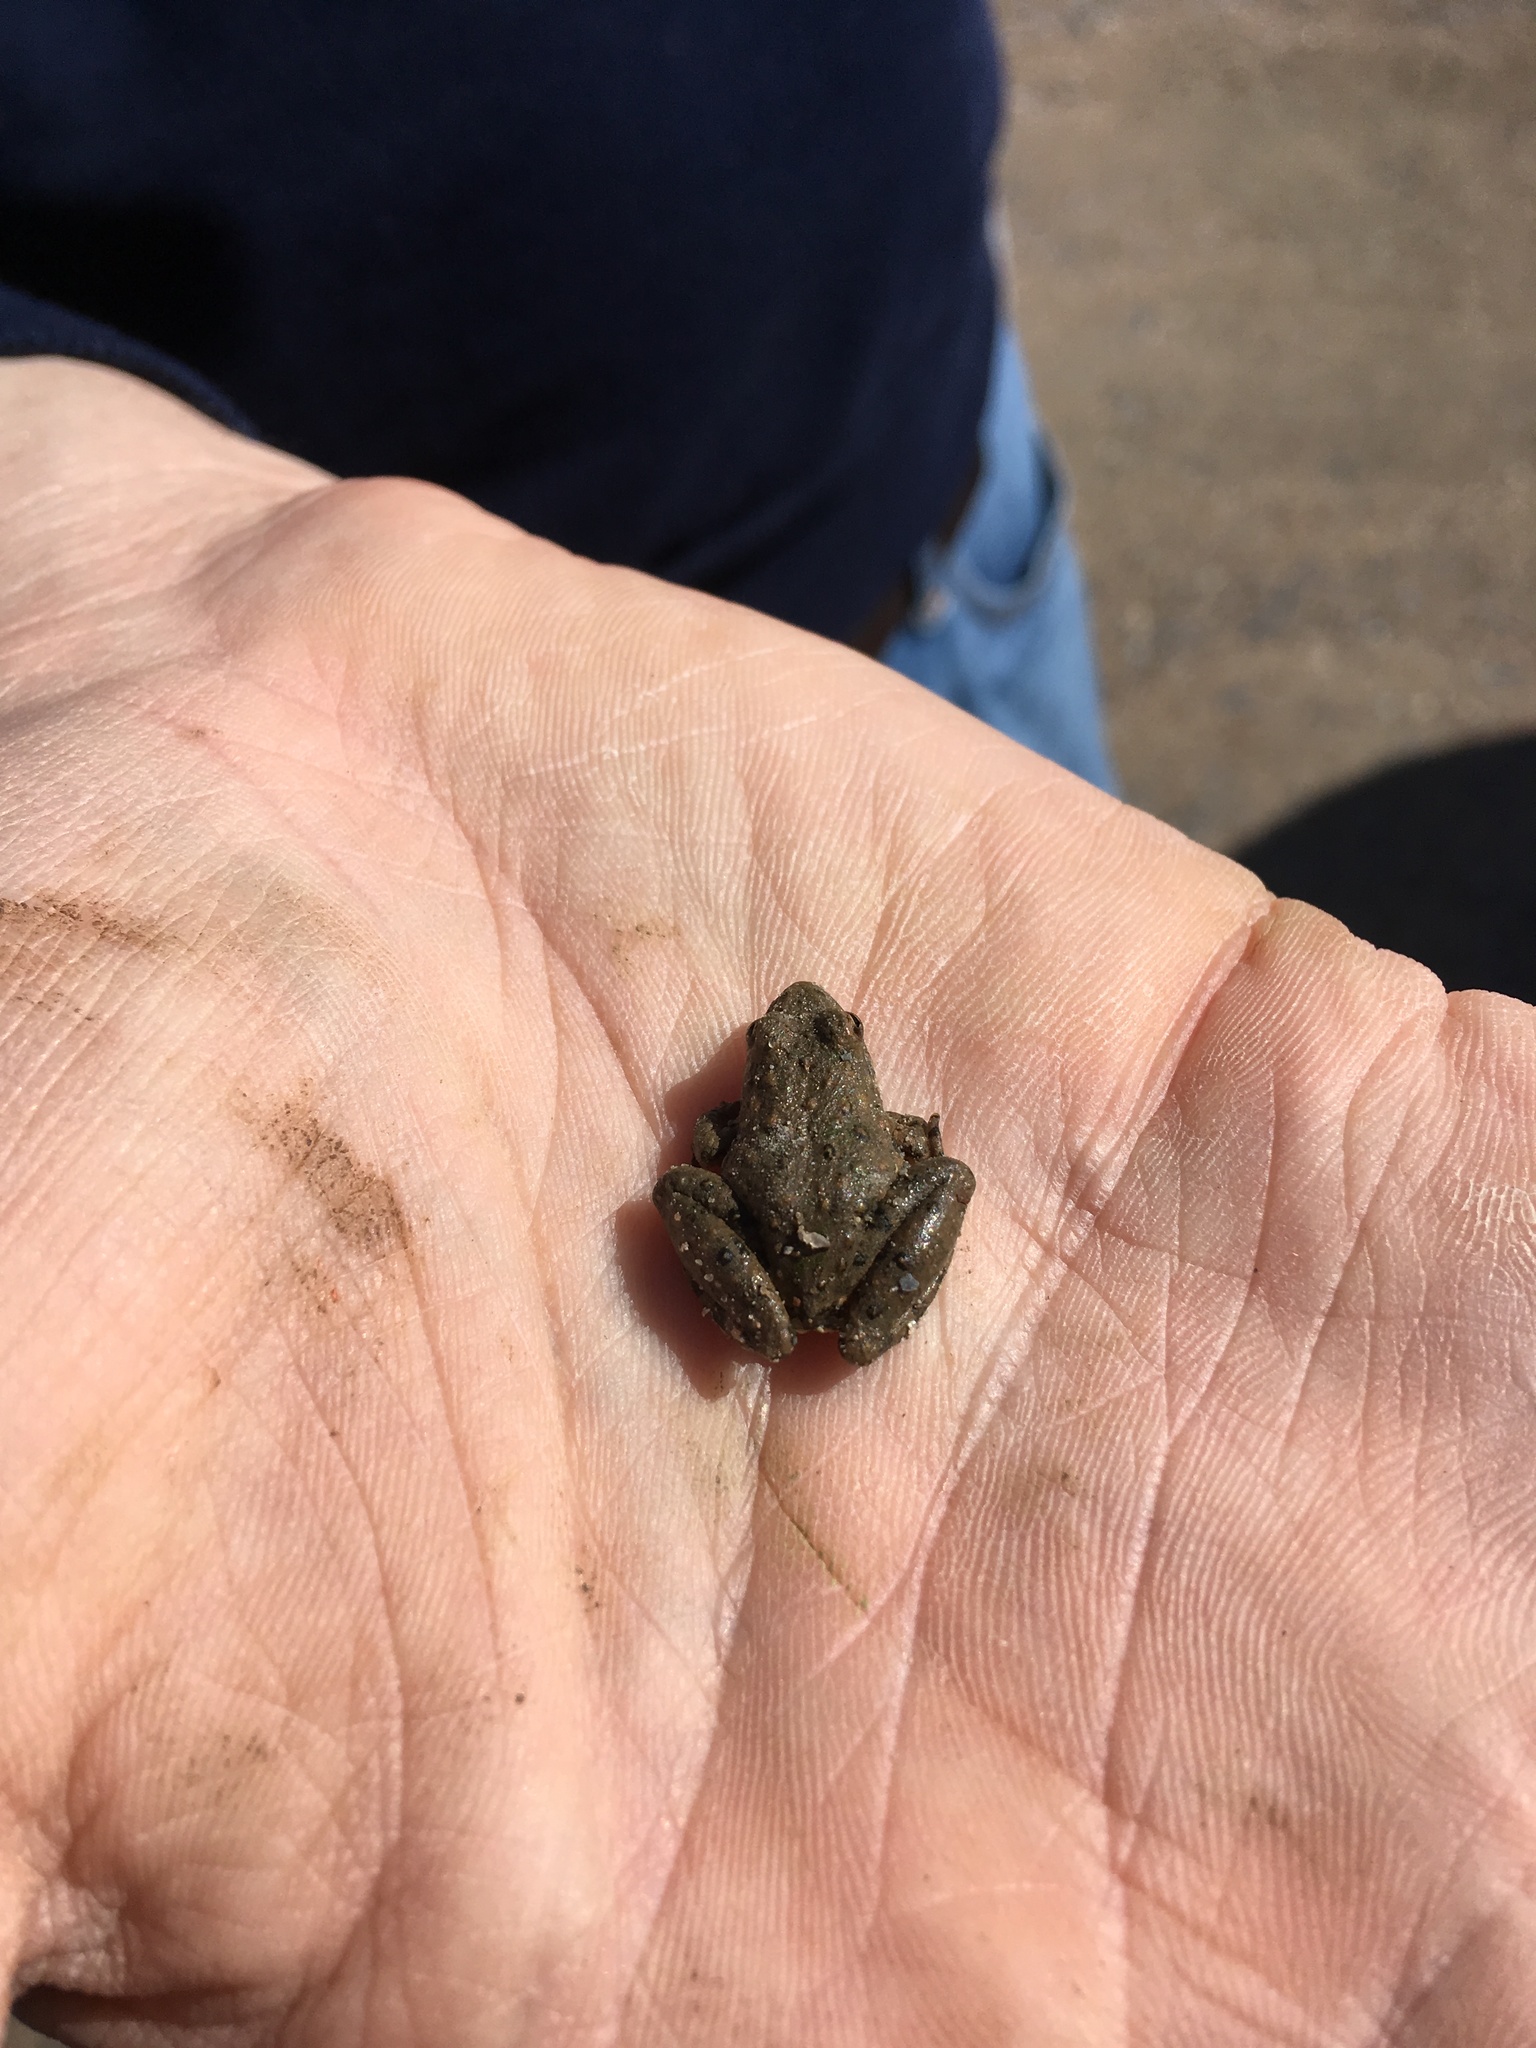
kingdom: Animalia
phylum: Chordata
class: Amphibia
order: Anura
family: Hylidae
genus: Acris
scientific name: Acris blanchardi
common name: Blanchard's cricket frog
